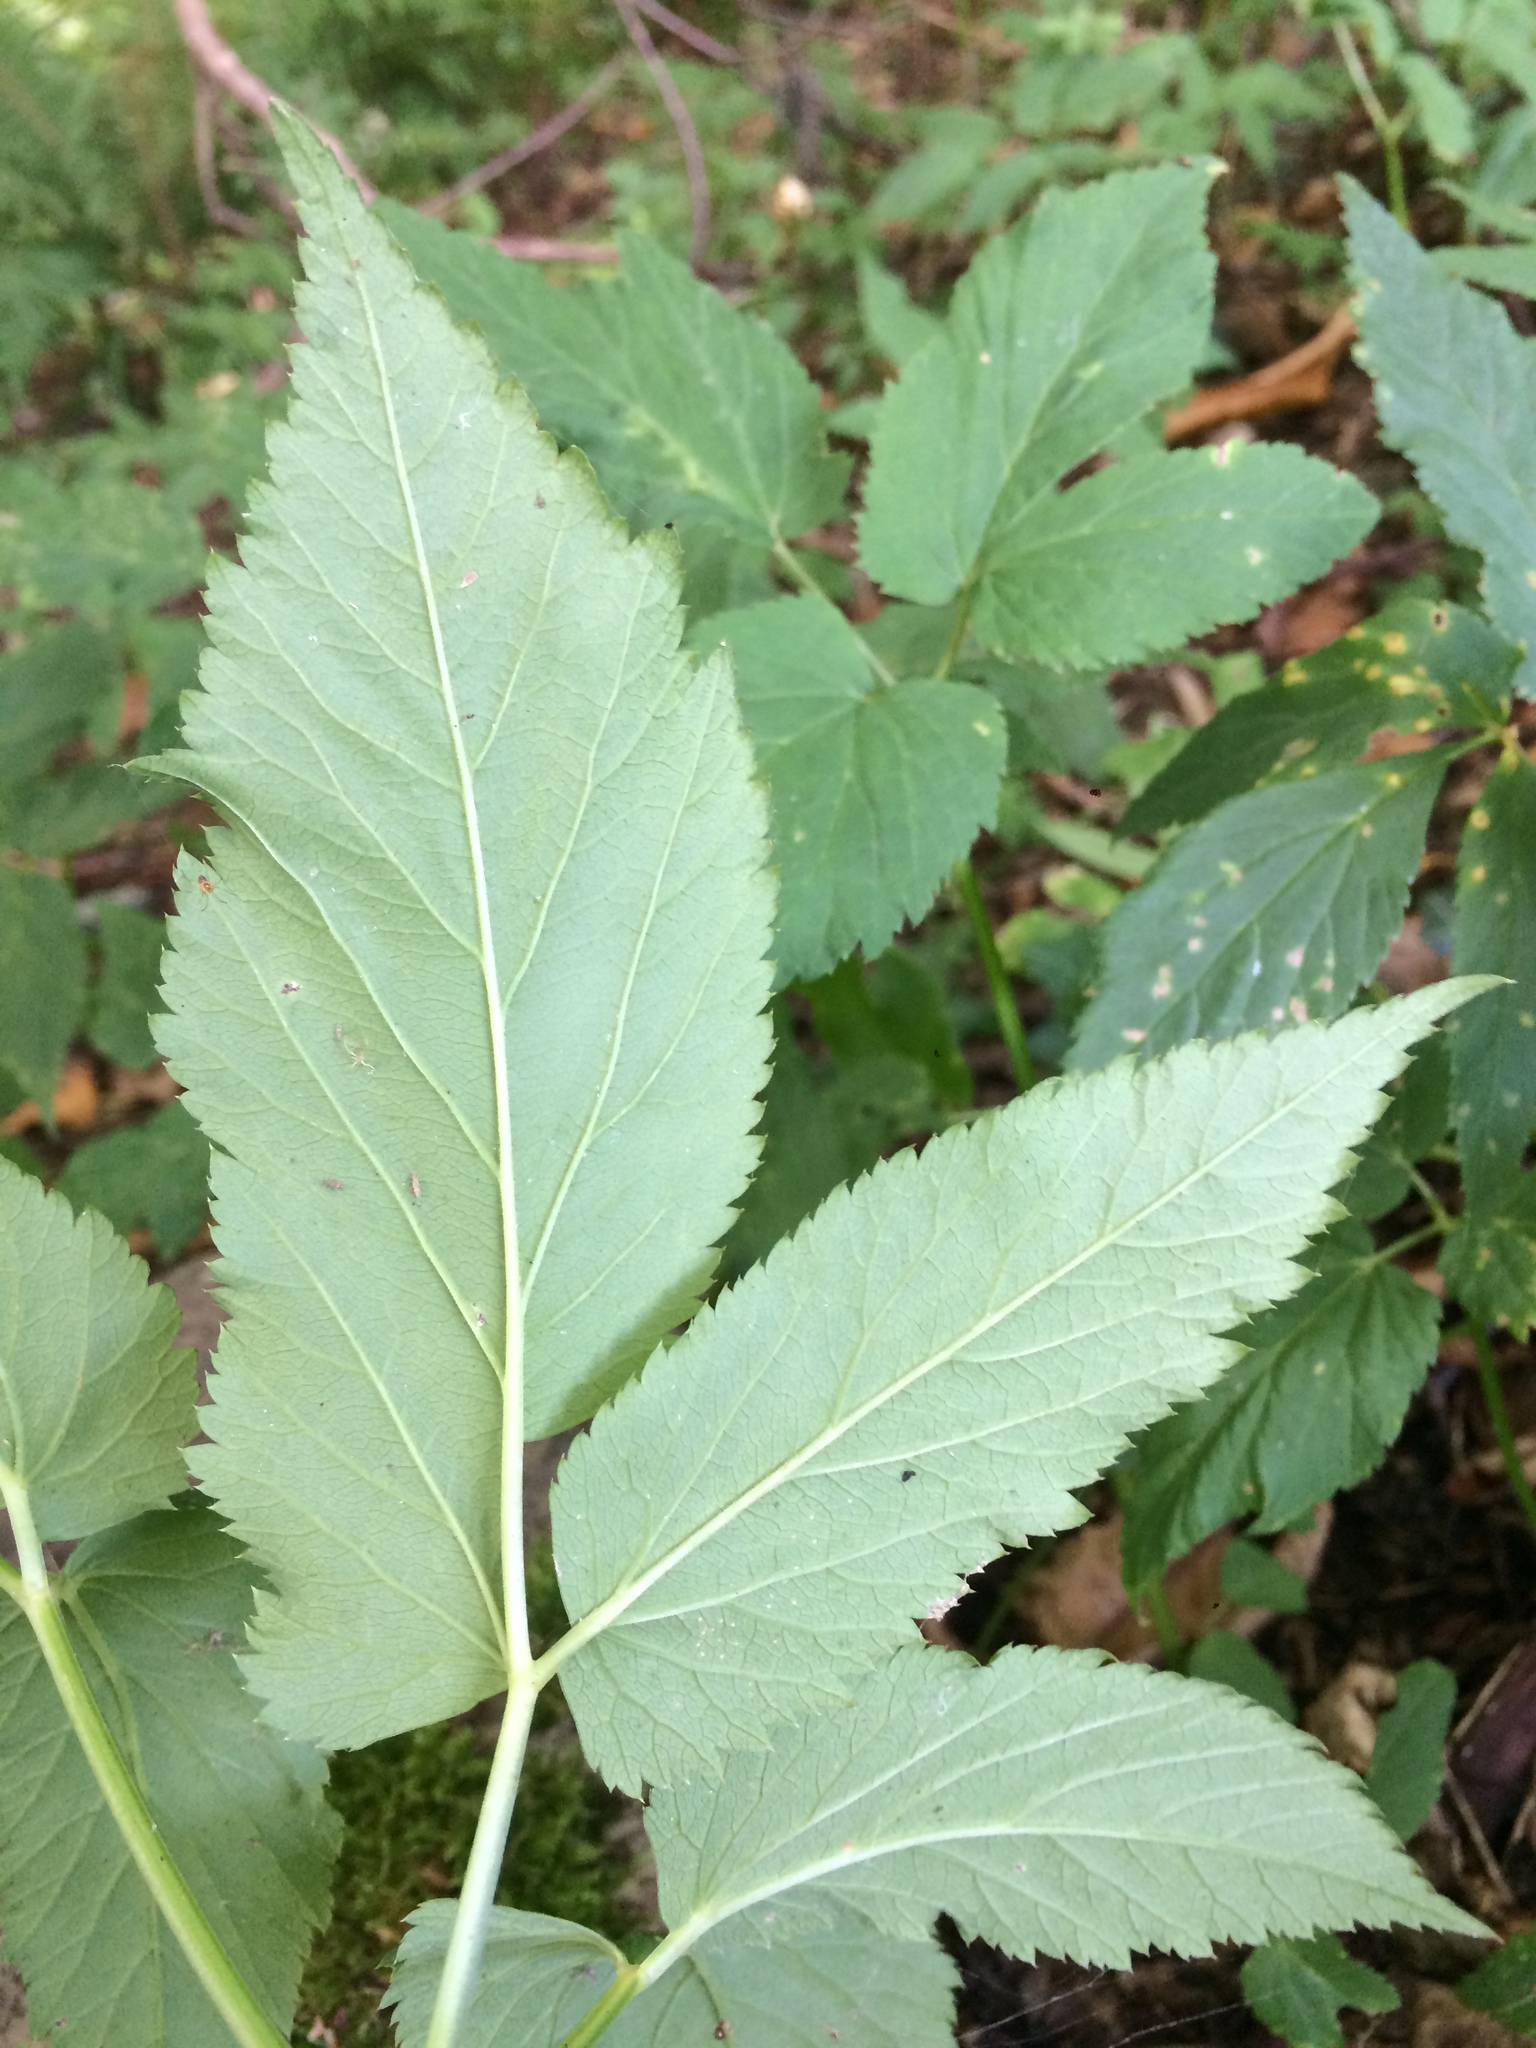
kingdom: Plantae
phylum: Tracheophyta
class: Magnoliopsida
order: Apiales
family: Apiaceae
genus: Aegopodium
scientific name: Aegopodium podagraria
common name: Ground-elder
